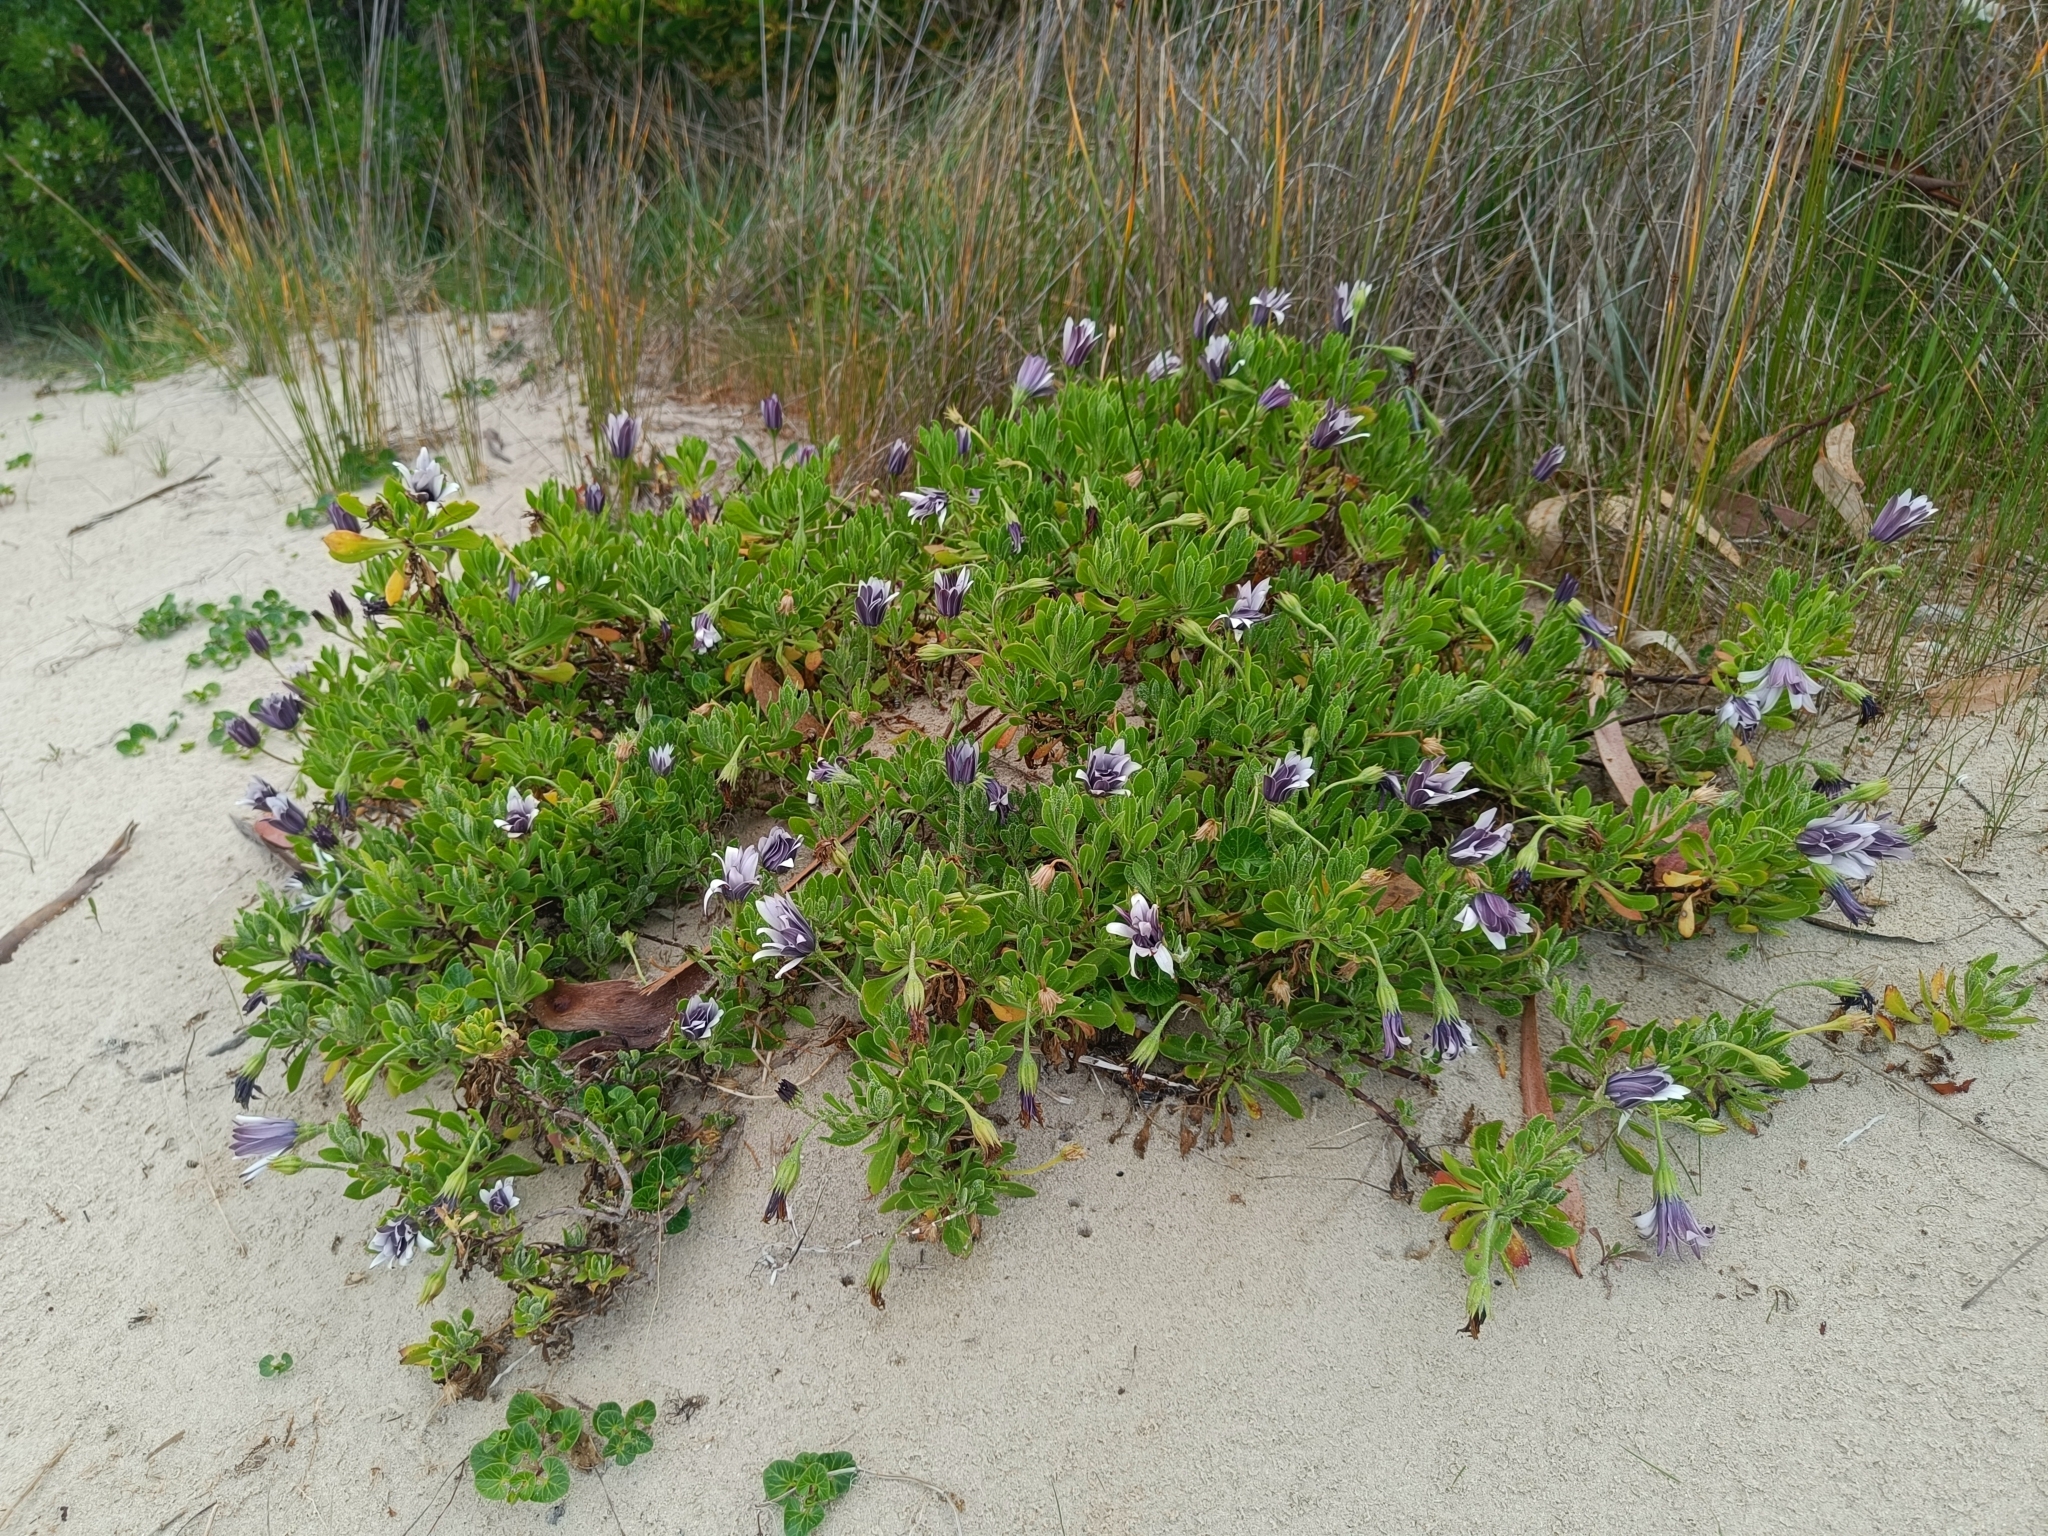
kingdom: Plantae
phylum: Tracheophyta
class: Magnoliopsida
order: Asterales
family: Asteraceae
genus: Dimorphotheca
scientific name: Dimorphotheca fruticosa
